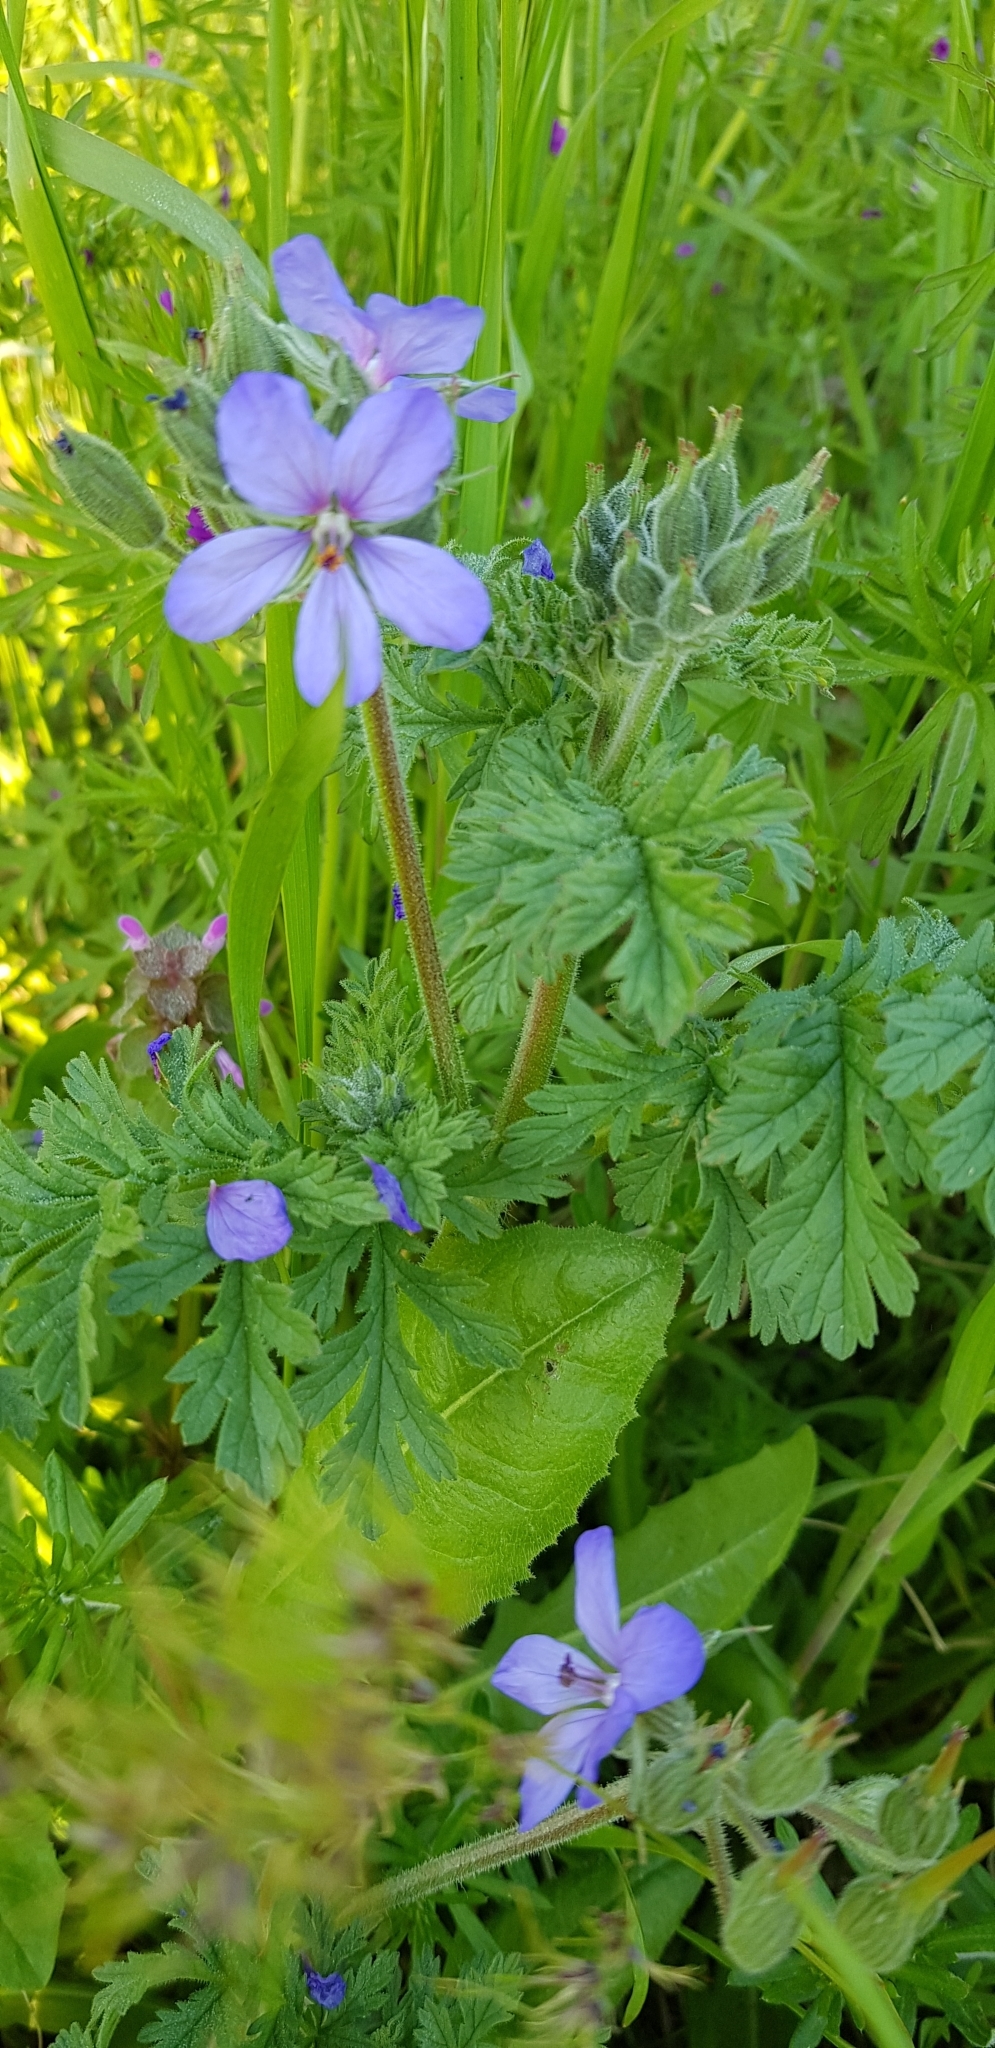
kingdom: Plantae
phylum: Tracheophyta
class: Magnoliopsida
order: Geraniales
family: Geraniaceae
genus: Erodium
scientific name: Erodium ciconium
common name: Common stork's bill
